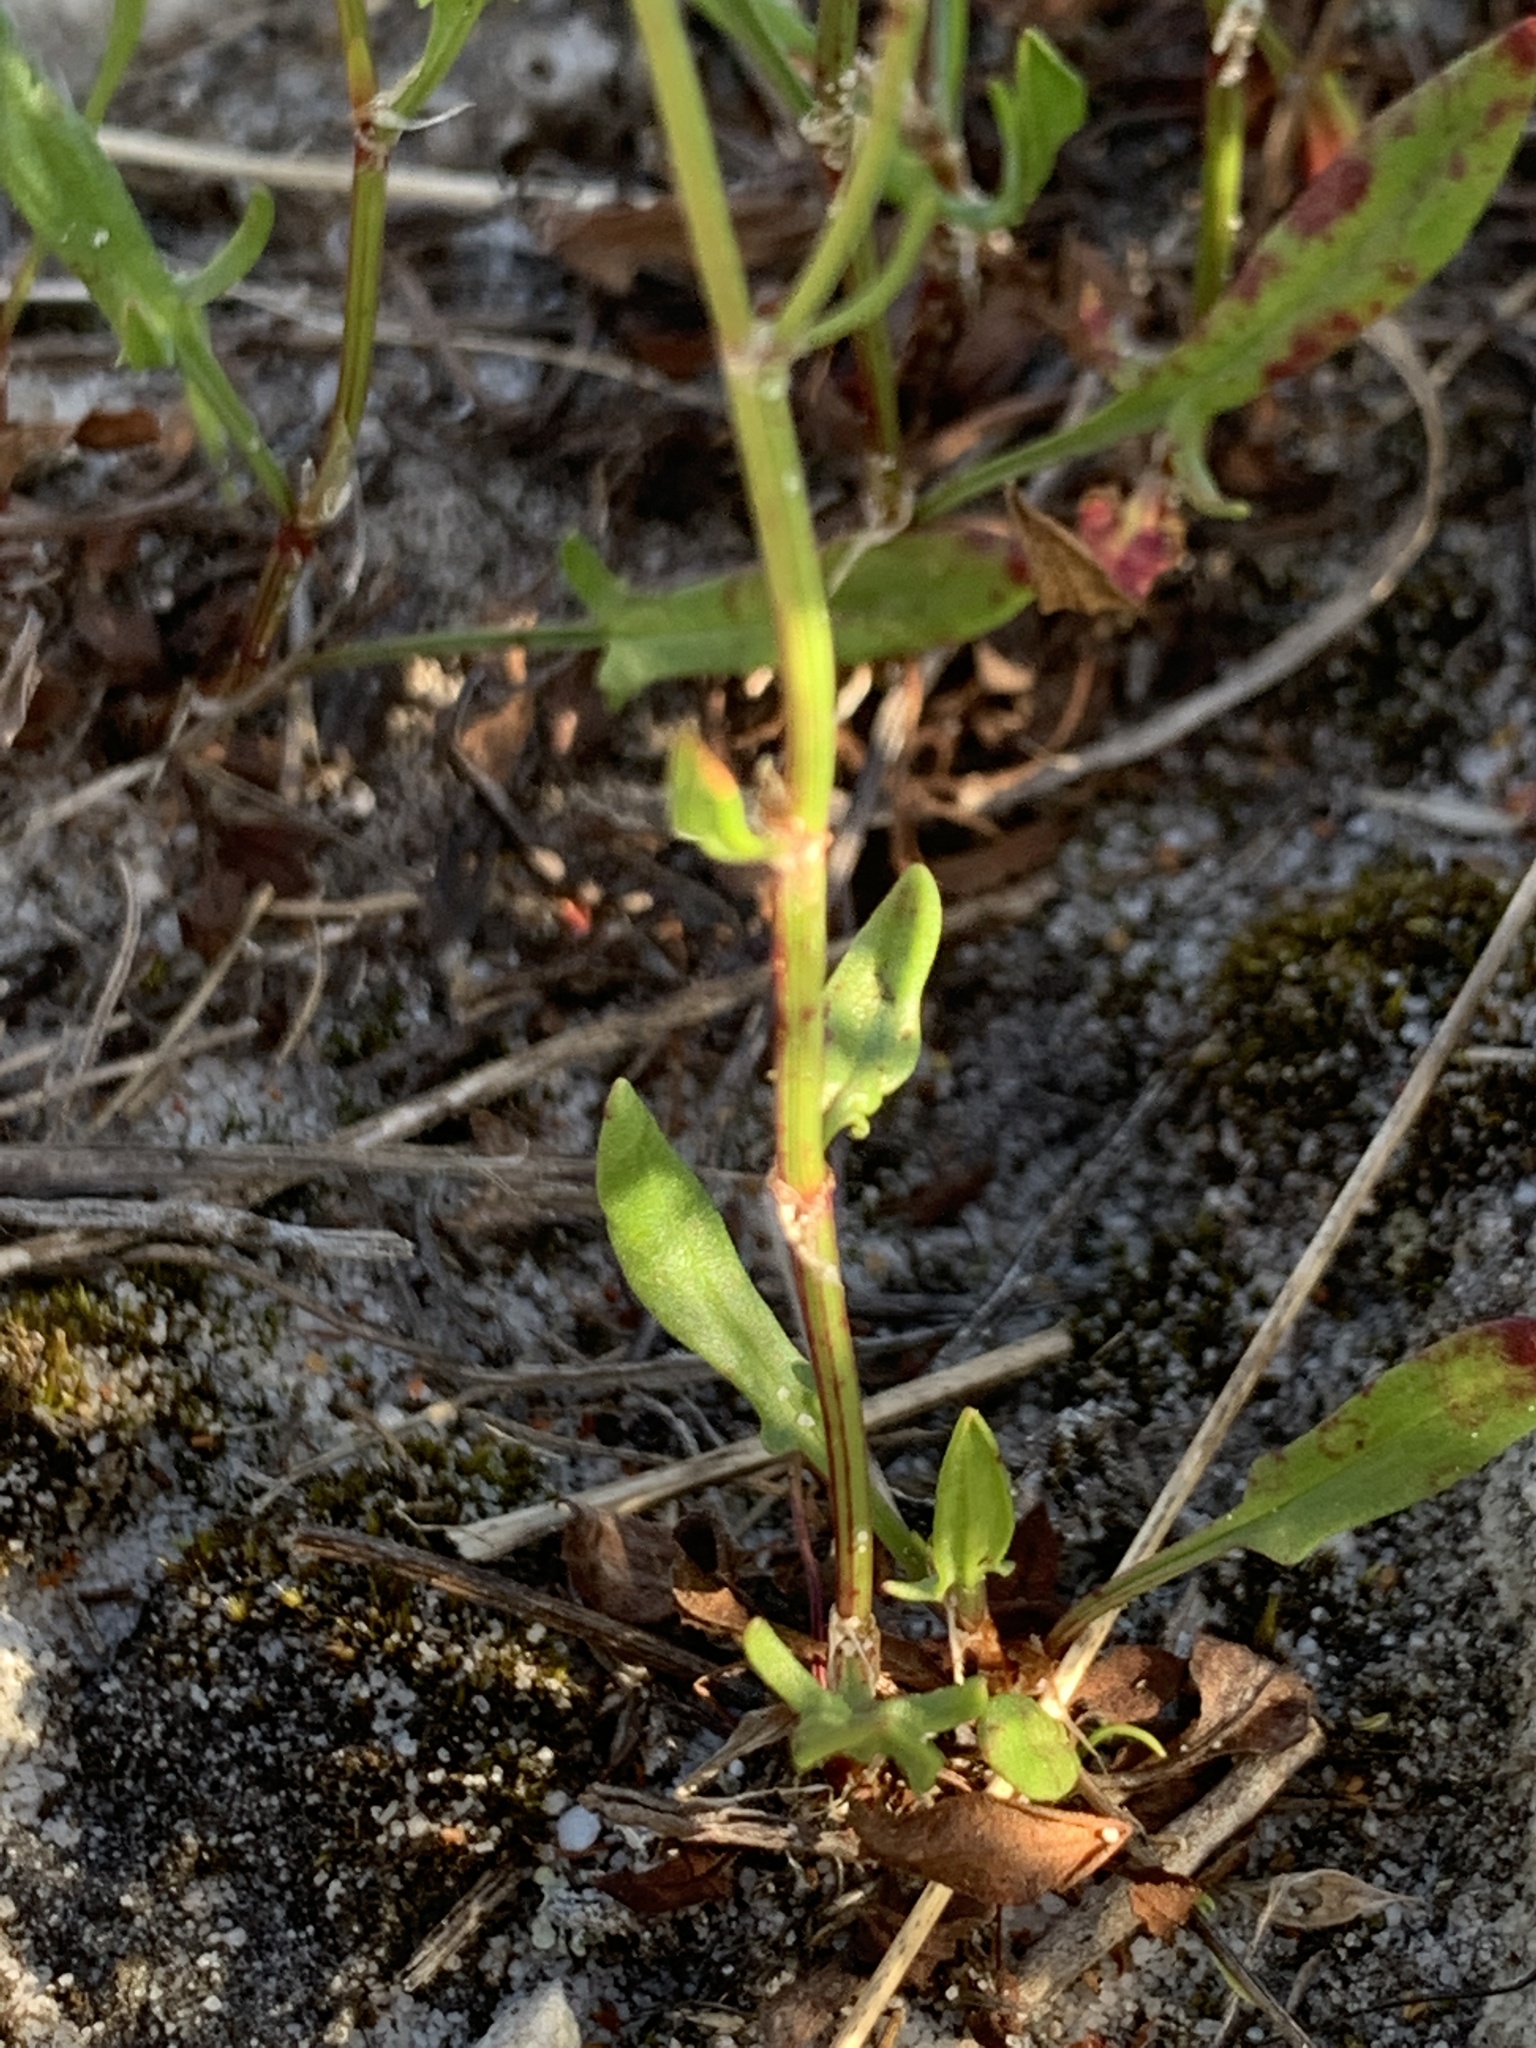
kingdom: Plantae
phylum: Tracheophyta
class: Magnoliopsida
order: Caryophyllales
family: Polygonaceae
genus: Rumex
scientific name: Rumex acetosella
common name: Common sheep sorrel
